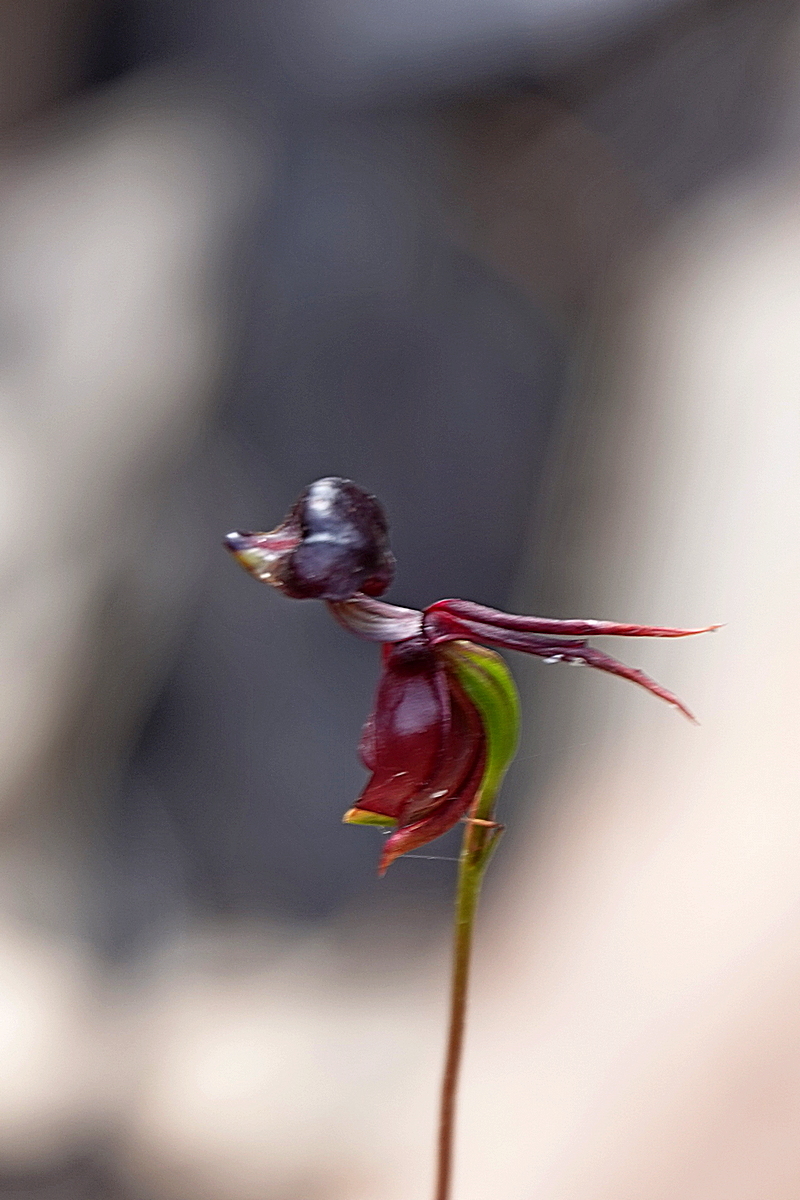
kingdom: Plantae
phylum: Tracheophyta
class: Liliopsida
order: Asparagales
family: Orchidaceae
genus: Caleana
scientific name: Caleana major
